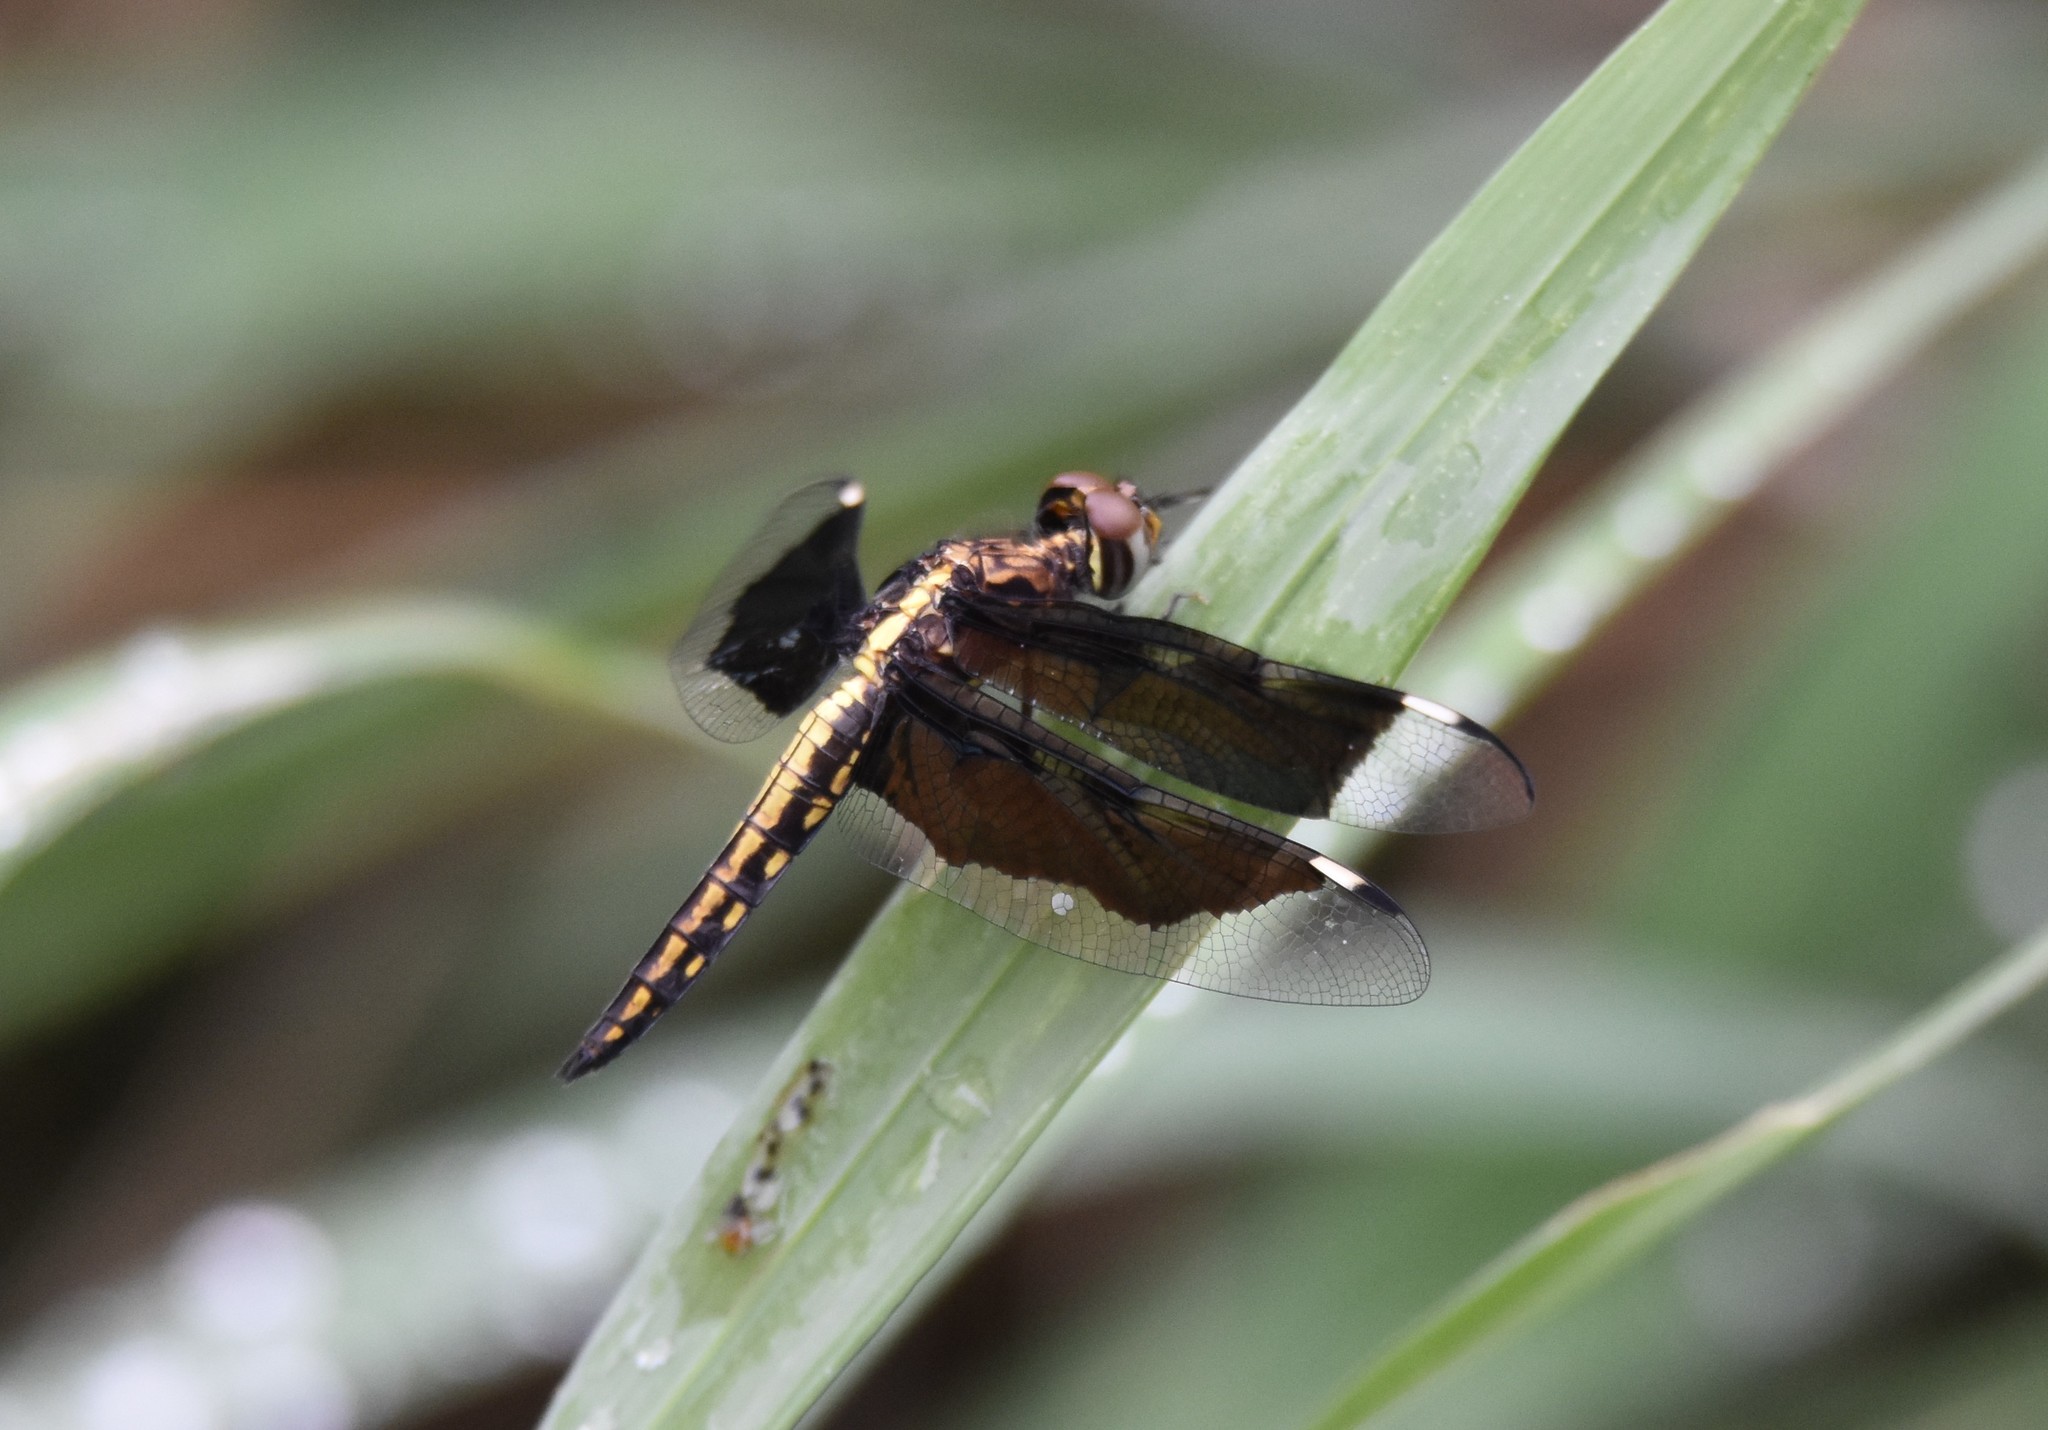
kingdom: Animalia
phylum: Arthropoda
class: Insecta
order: Odonata
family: Libellulidae
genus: Palpopleura
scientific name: Palpopleura lucia
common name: Lucia widow
